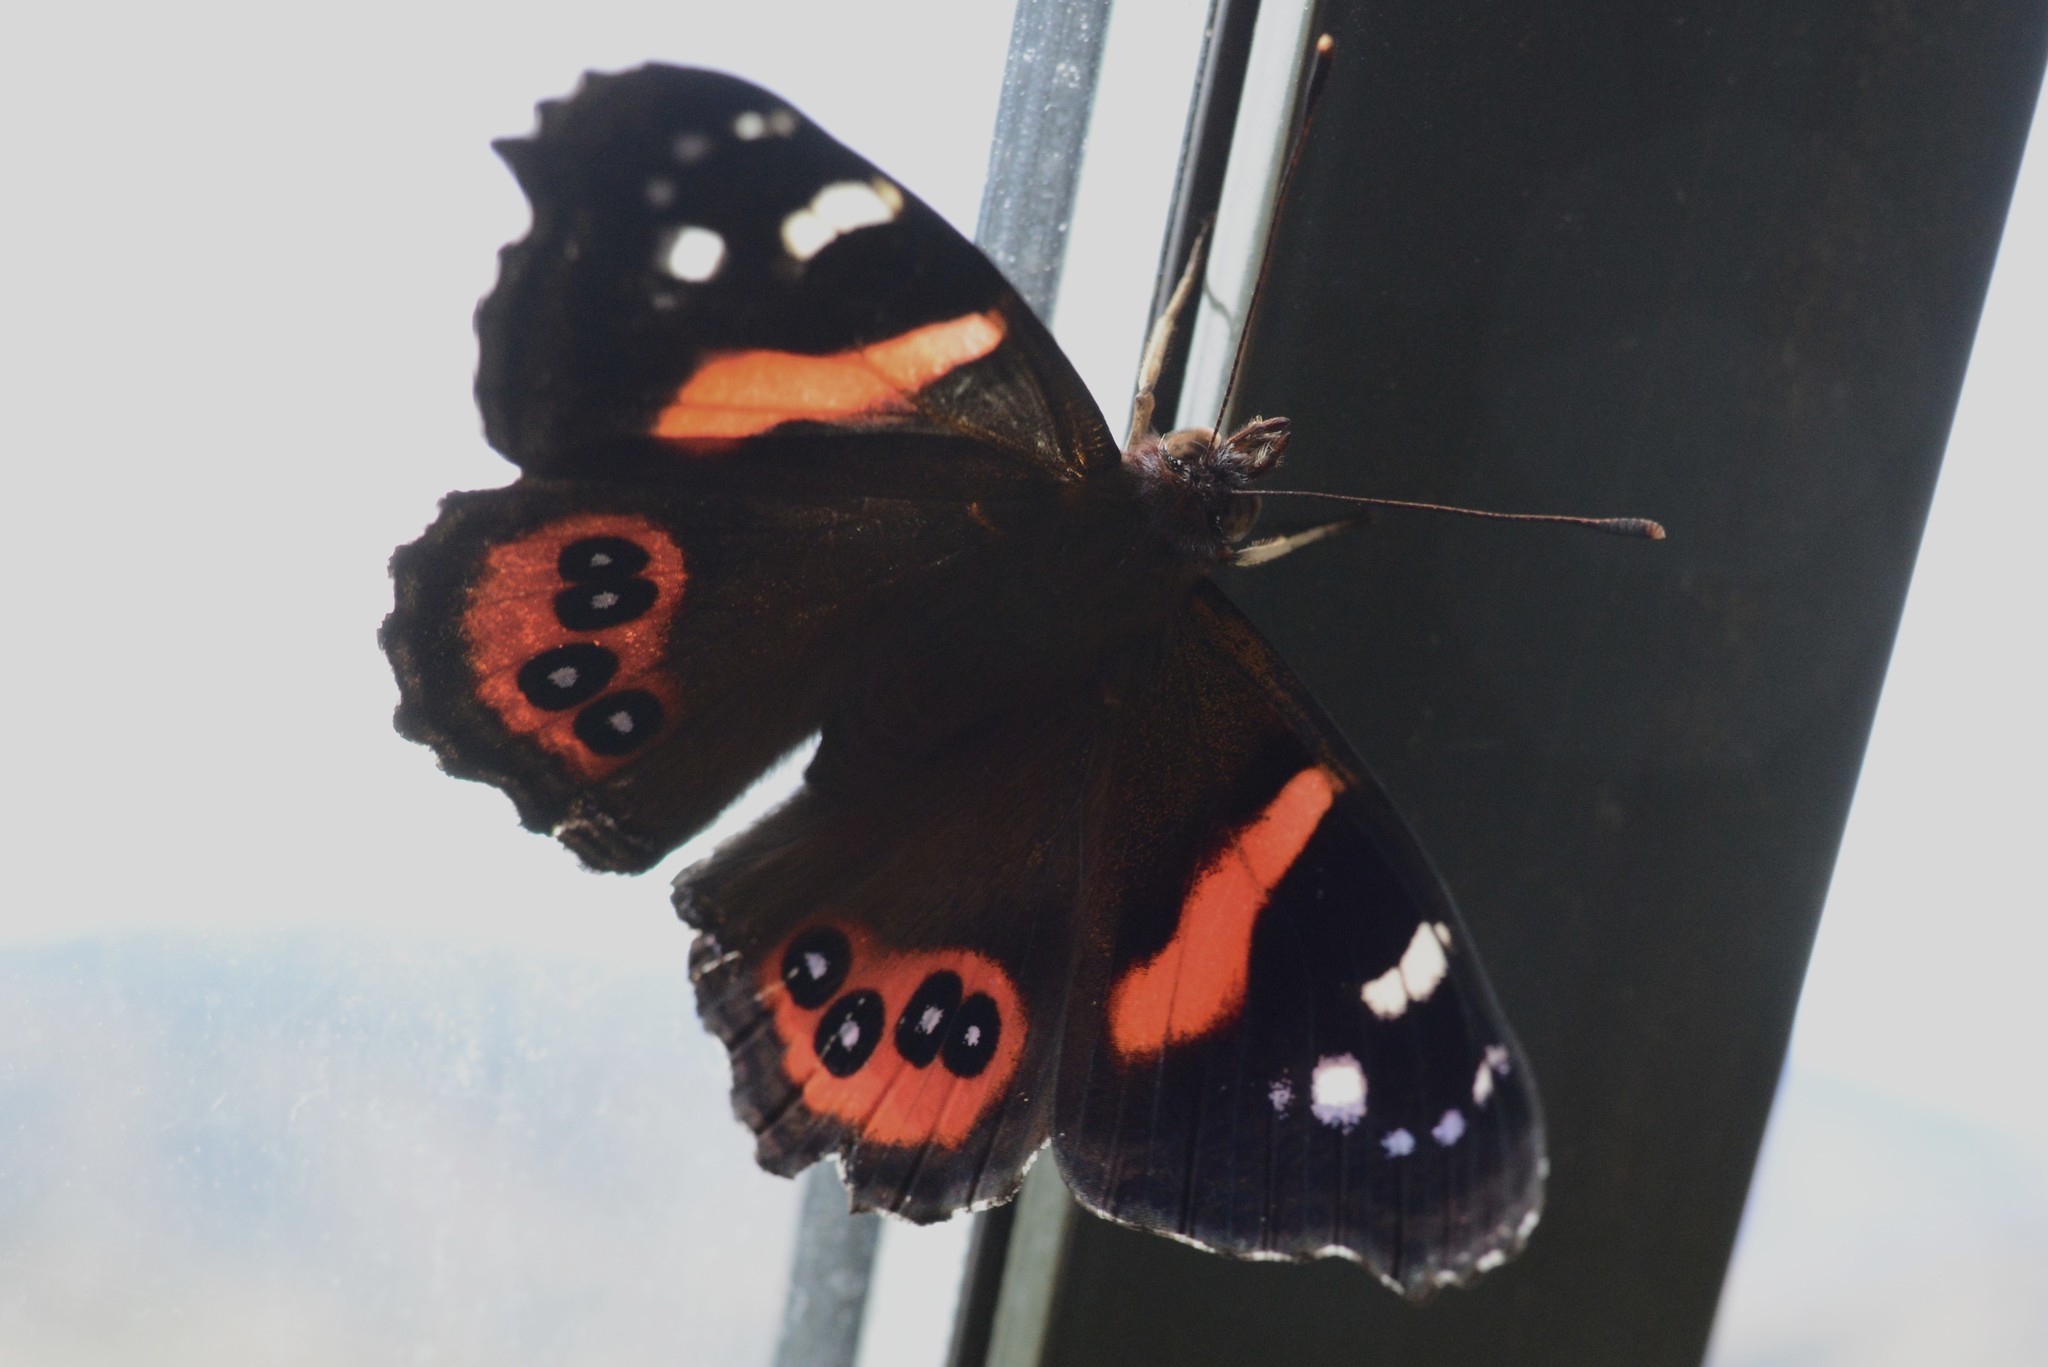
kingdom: Animalia
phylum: Arthropoda
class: Insecta
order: Lepidoptera
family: Nymphalidae
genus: Vanessa
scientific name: Vanessa gonerilla
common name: New zealand red admiral
